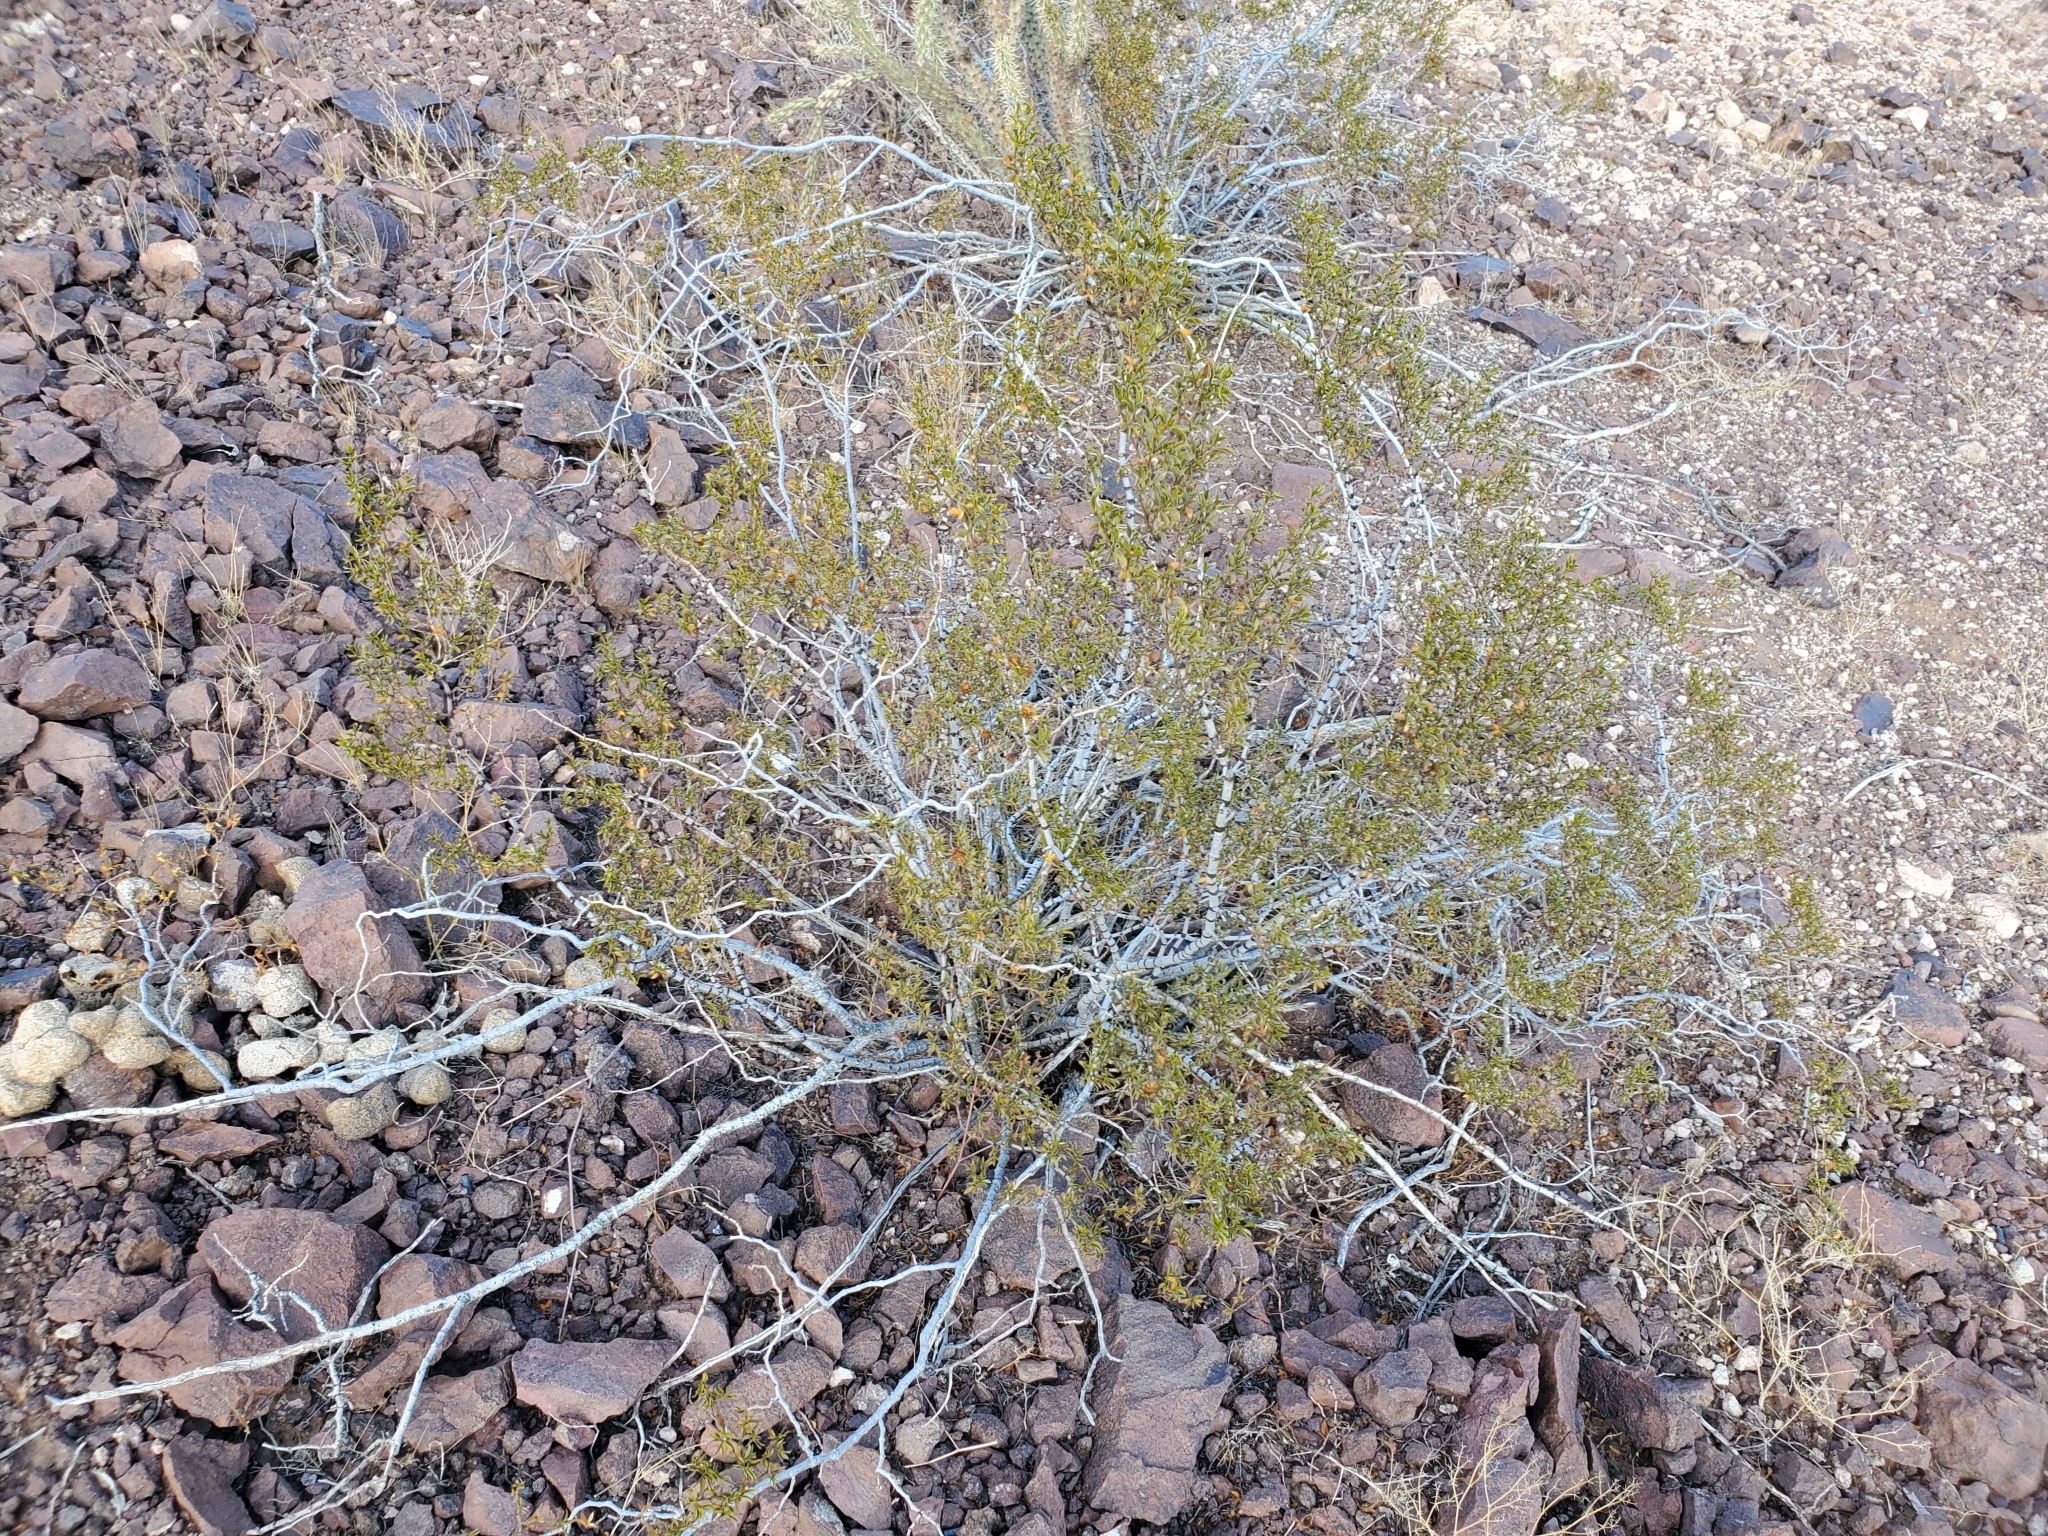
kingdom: Plantae
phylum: Tracheophyta
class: Magnoliopsida
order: Zygophyllales
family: Zygophyllaceae
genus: Larrea
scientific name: Larrea tridentata
